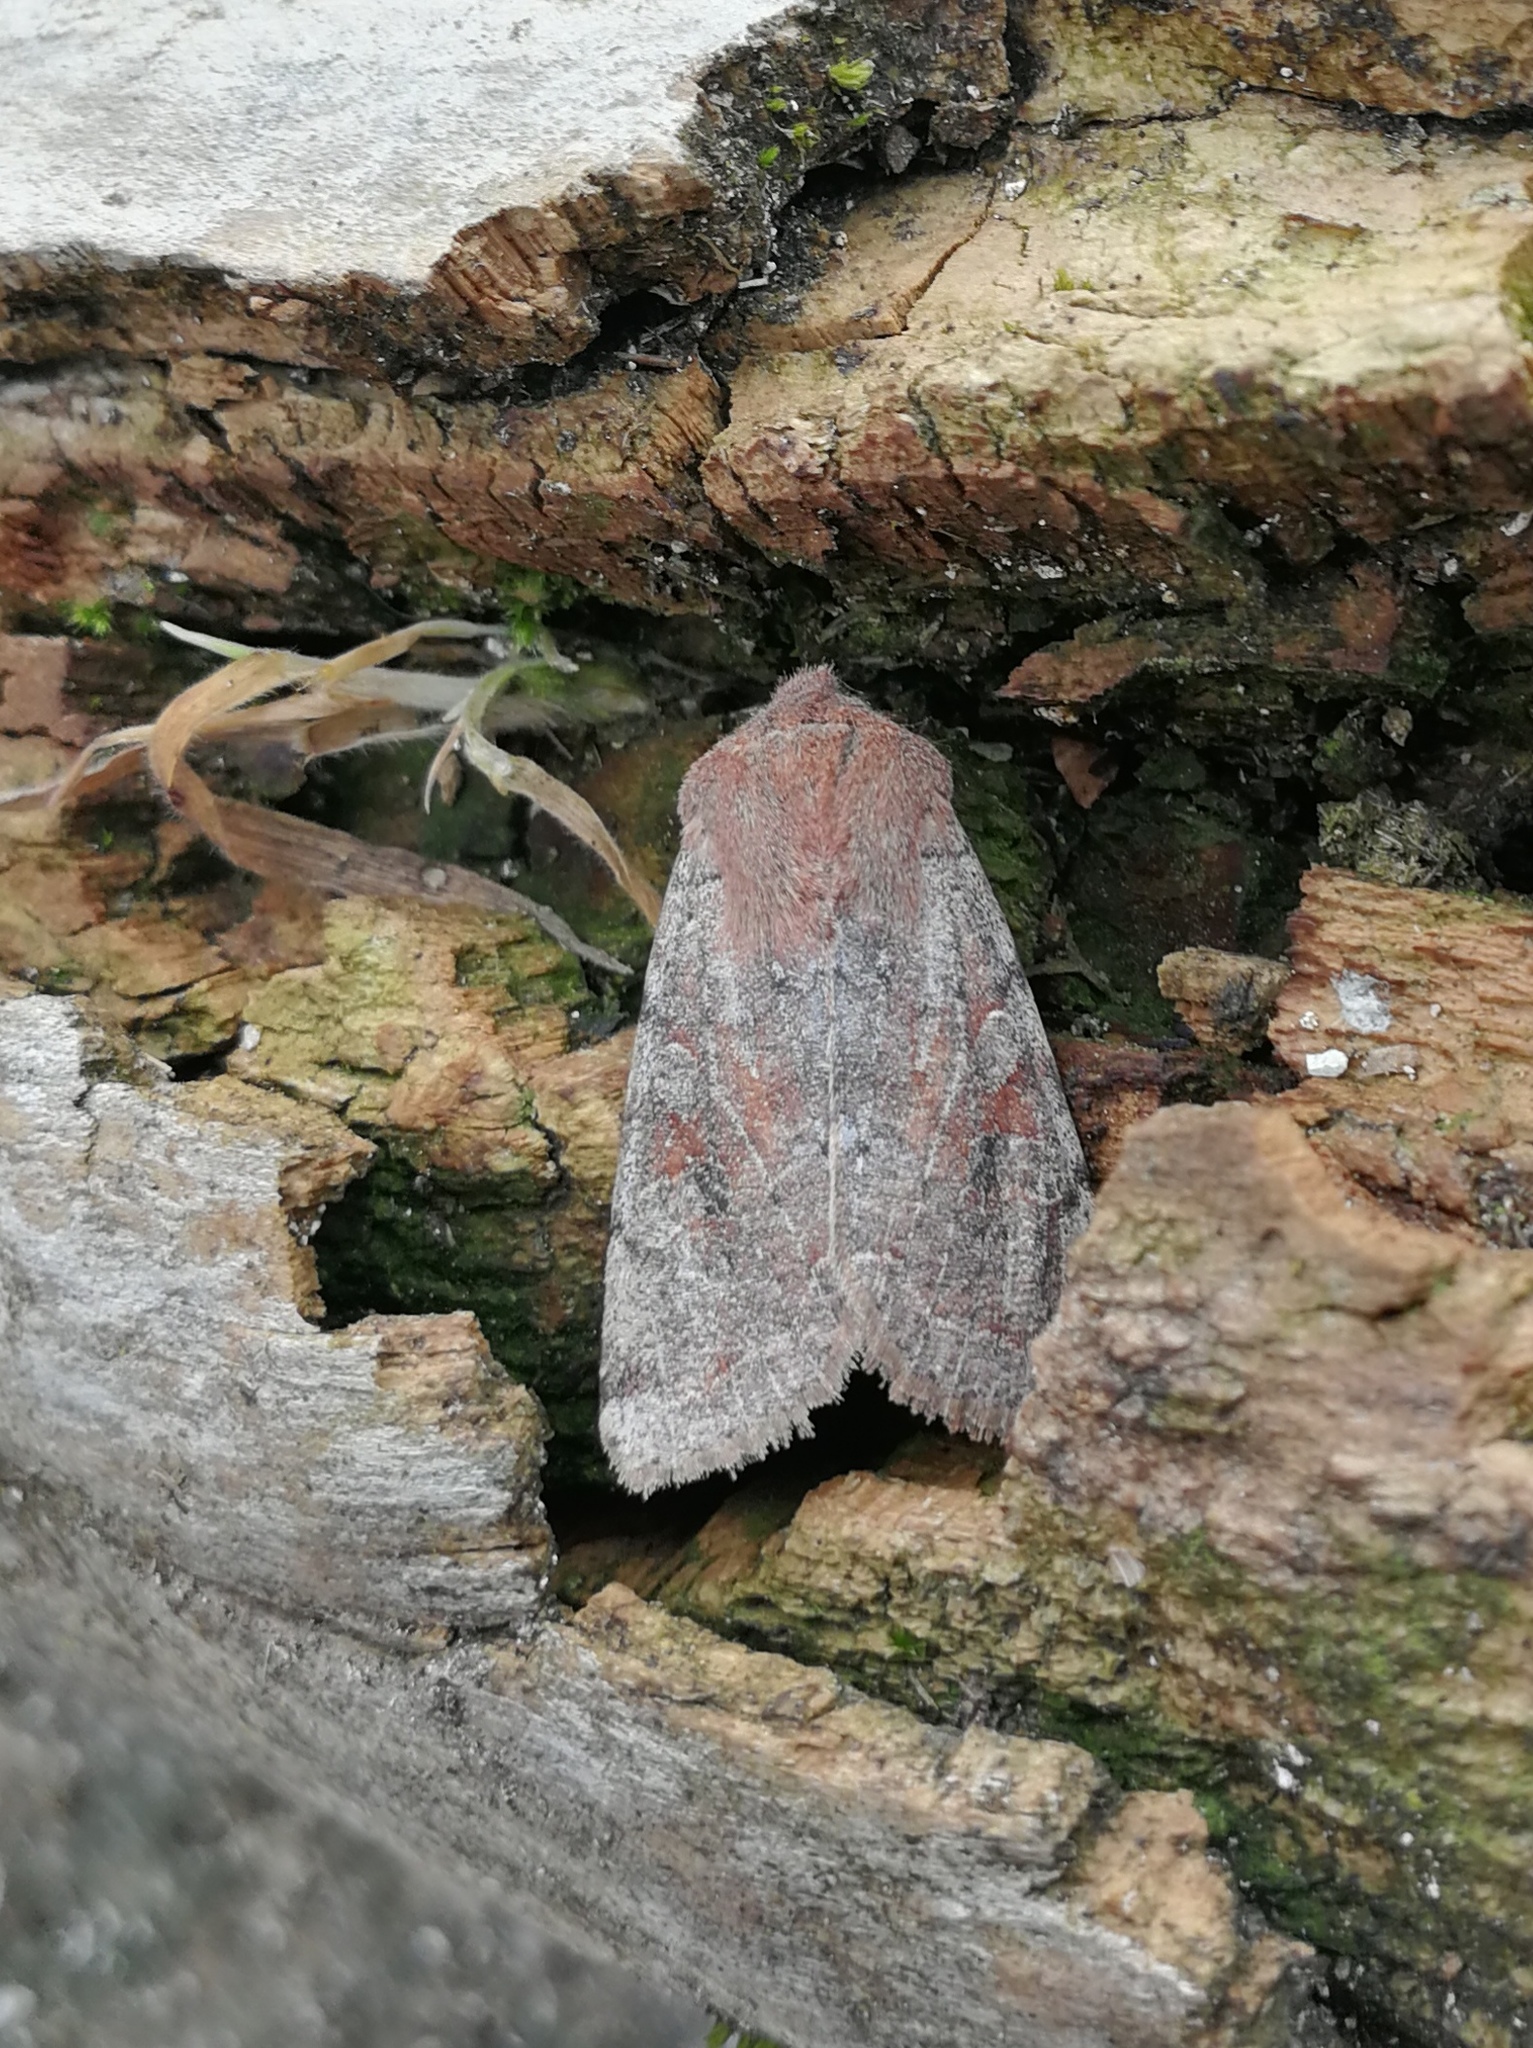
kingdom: Animalia
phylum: Arthropoda
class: Insecta
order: Lepidoptera
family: Noctuidae
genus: Orthosia
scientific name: Orthosia incerta
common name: Clouded drab
